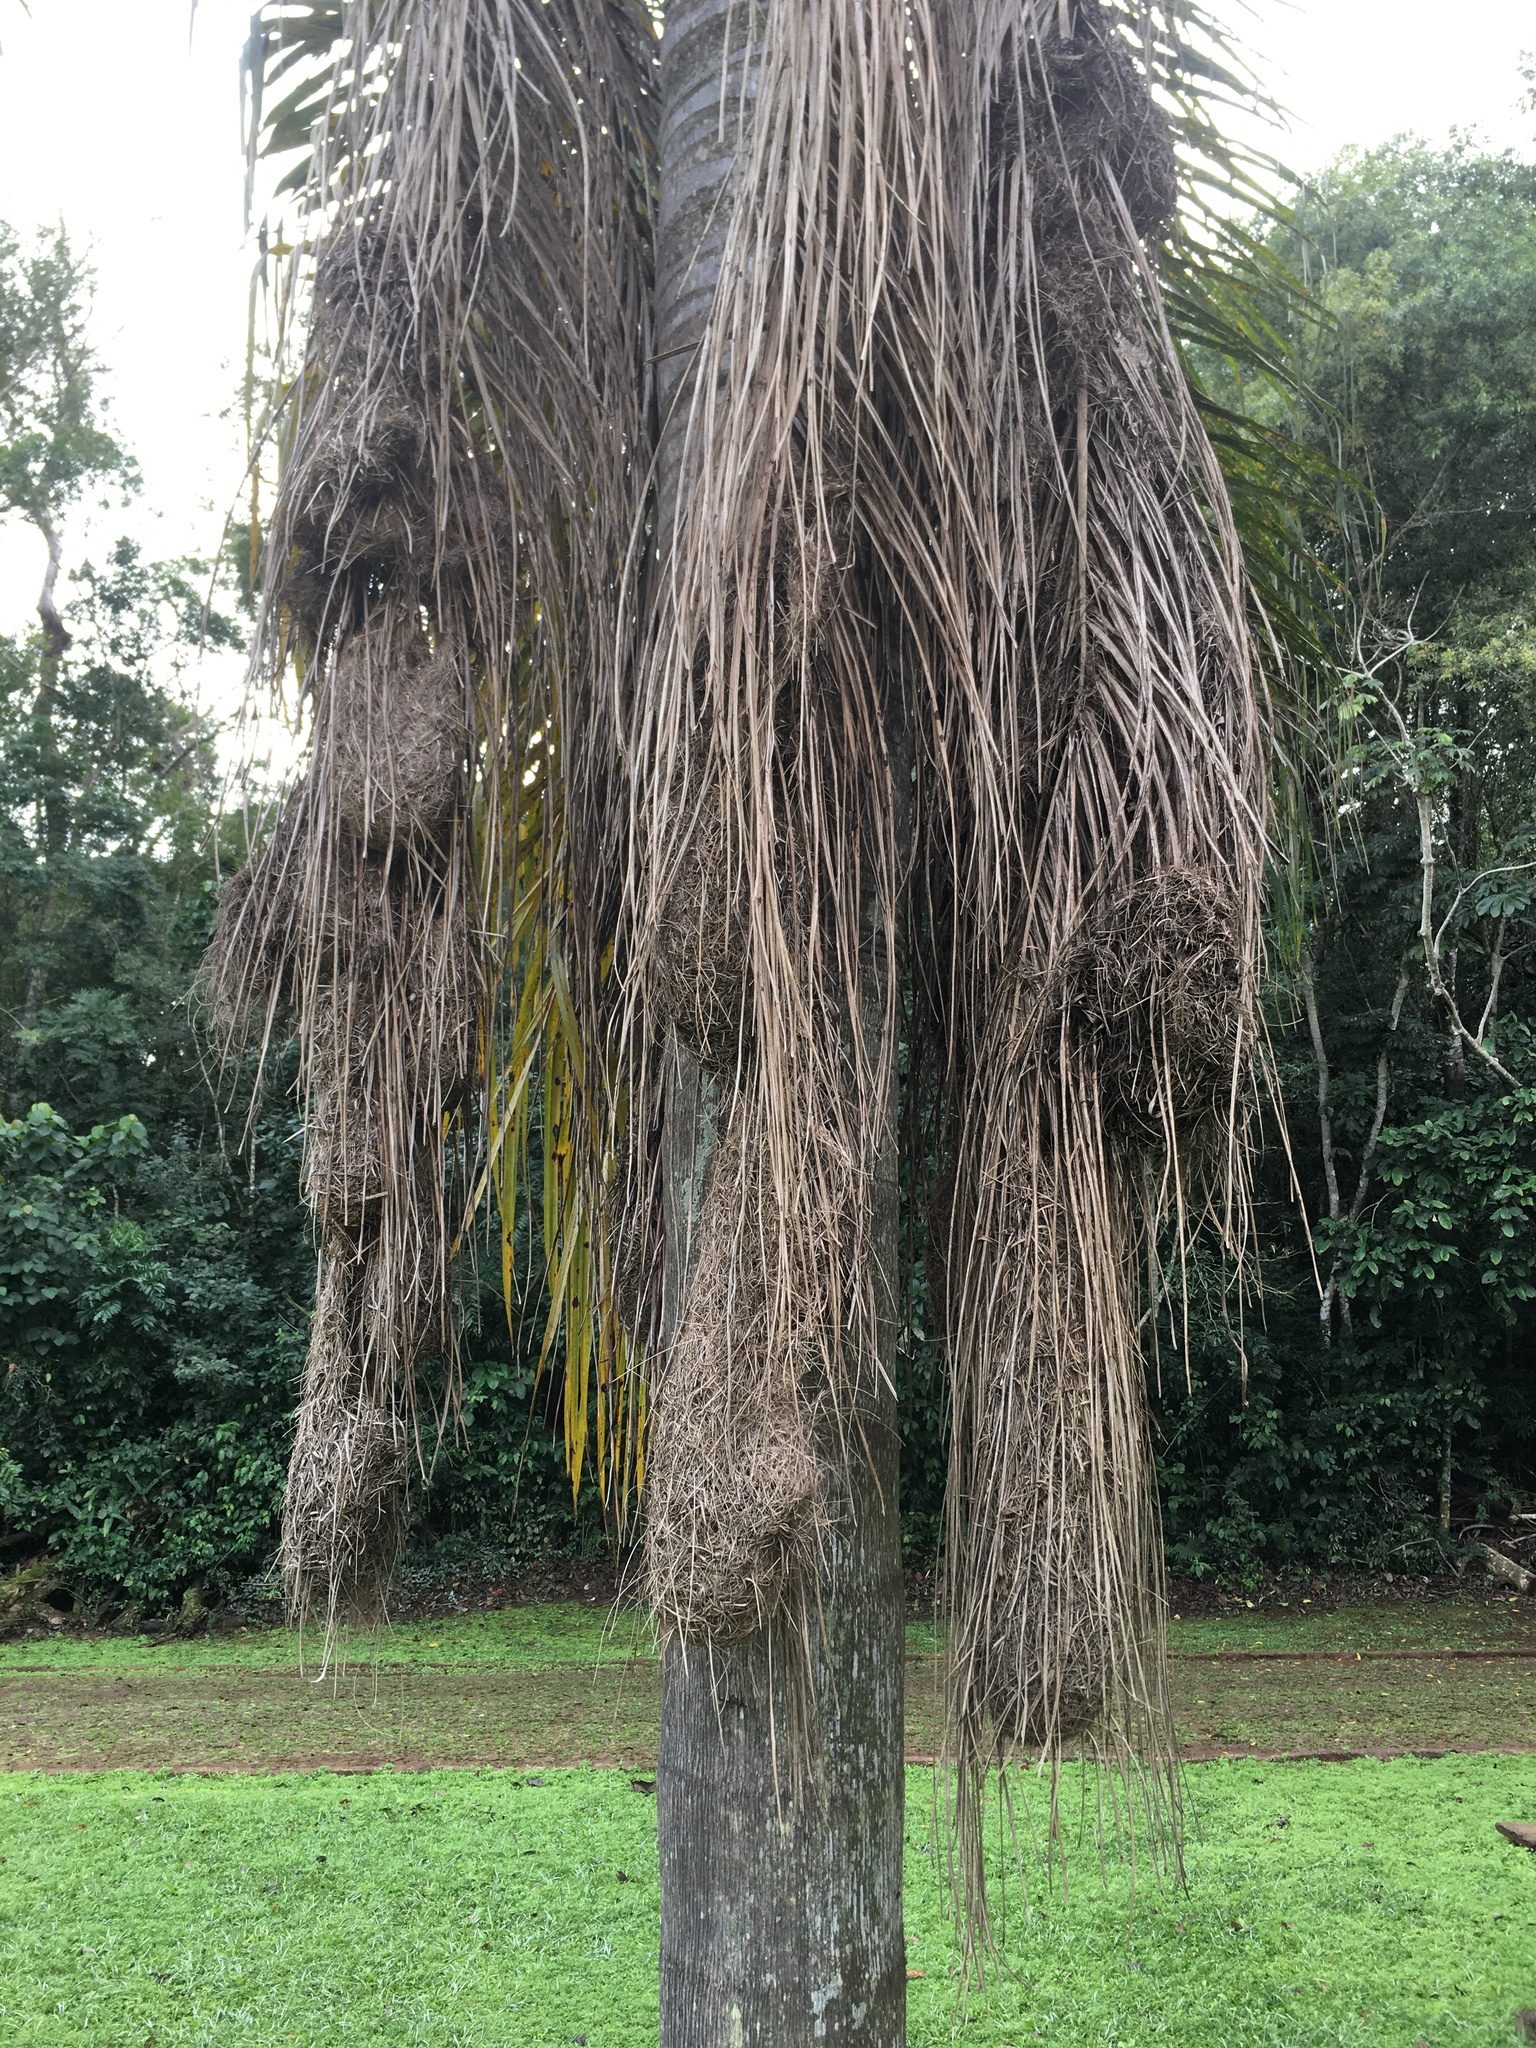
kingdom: Animalia
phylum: Chordata
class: Aves
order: Passeriformes
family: Icteridae
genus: Cacicus
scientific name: Cacicus haemorrhous
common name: Red-rumped cacique
